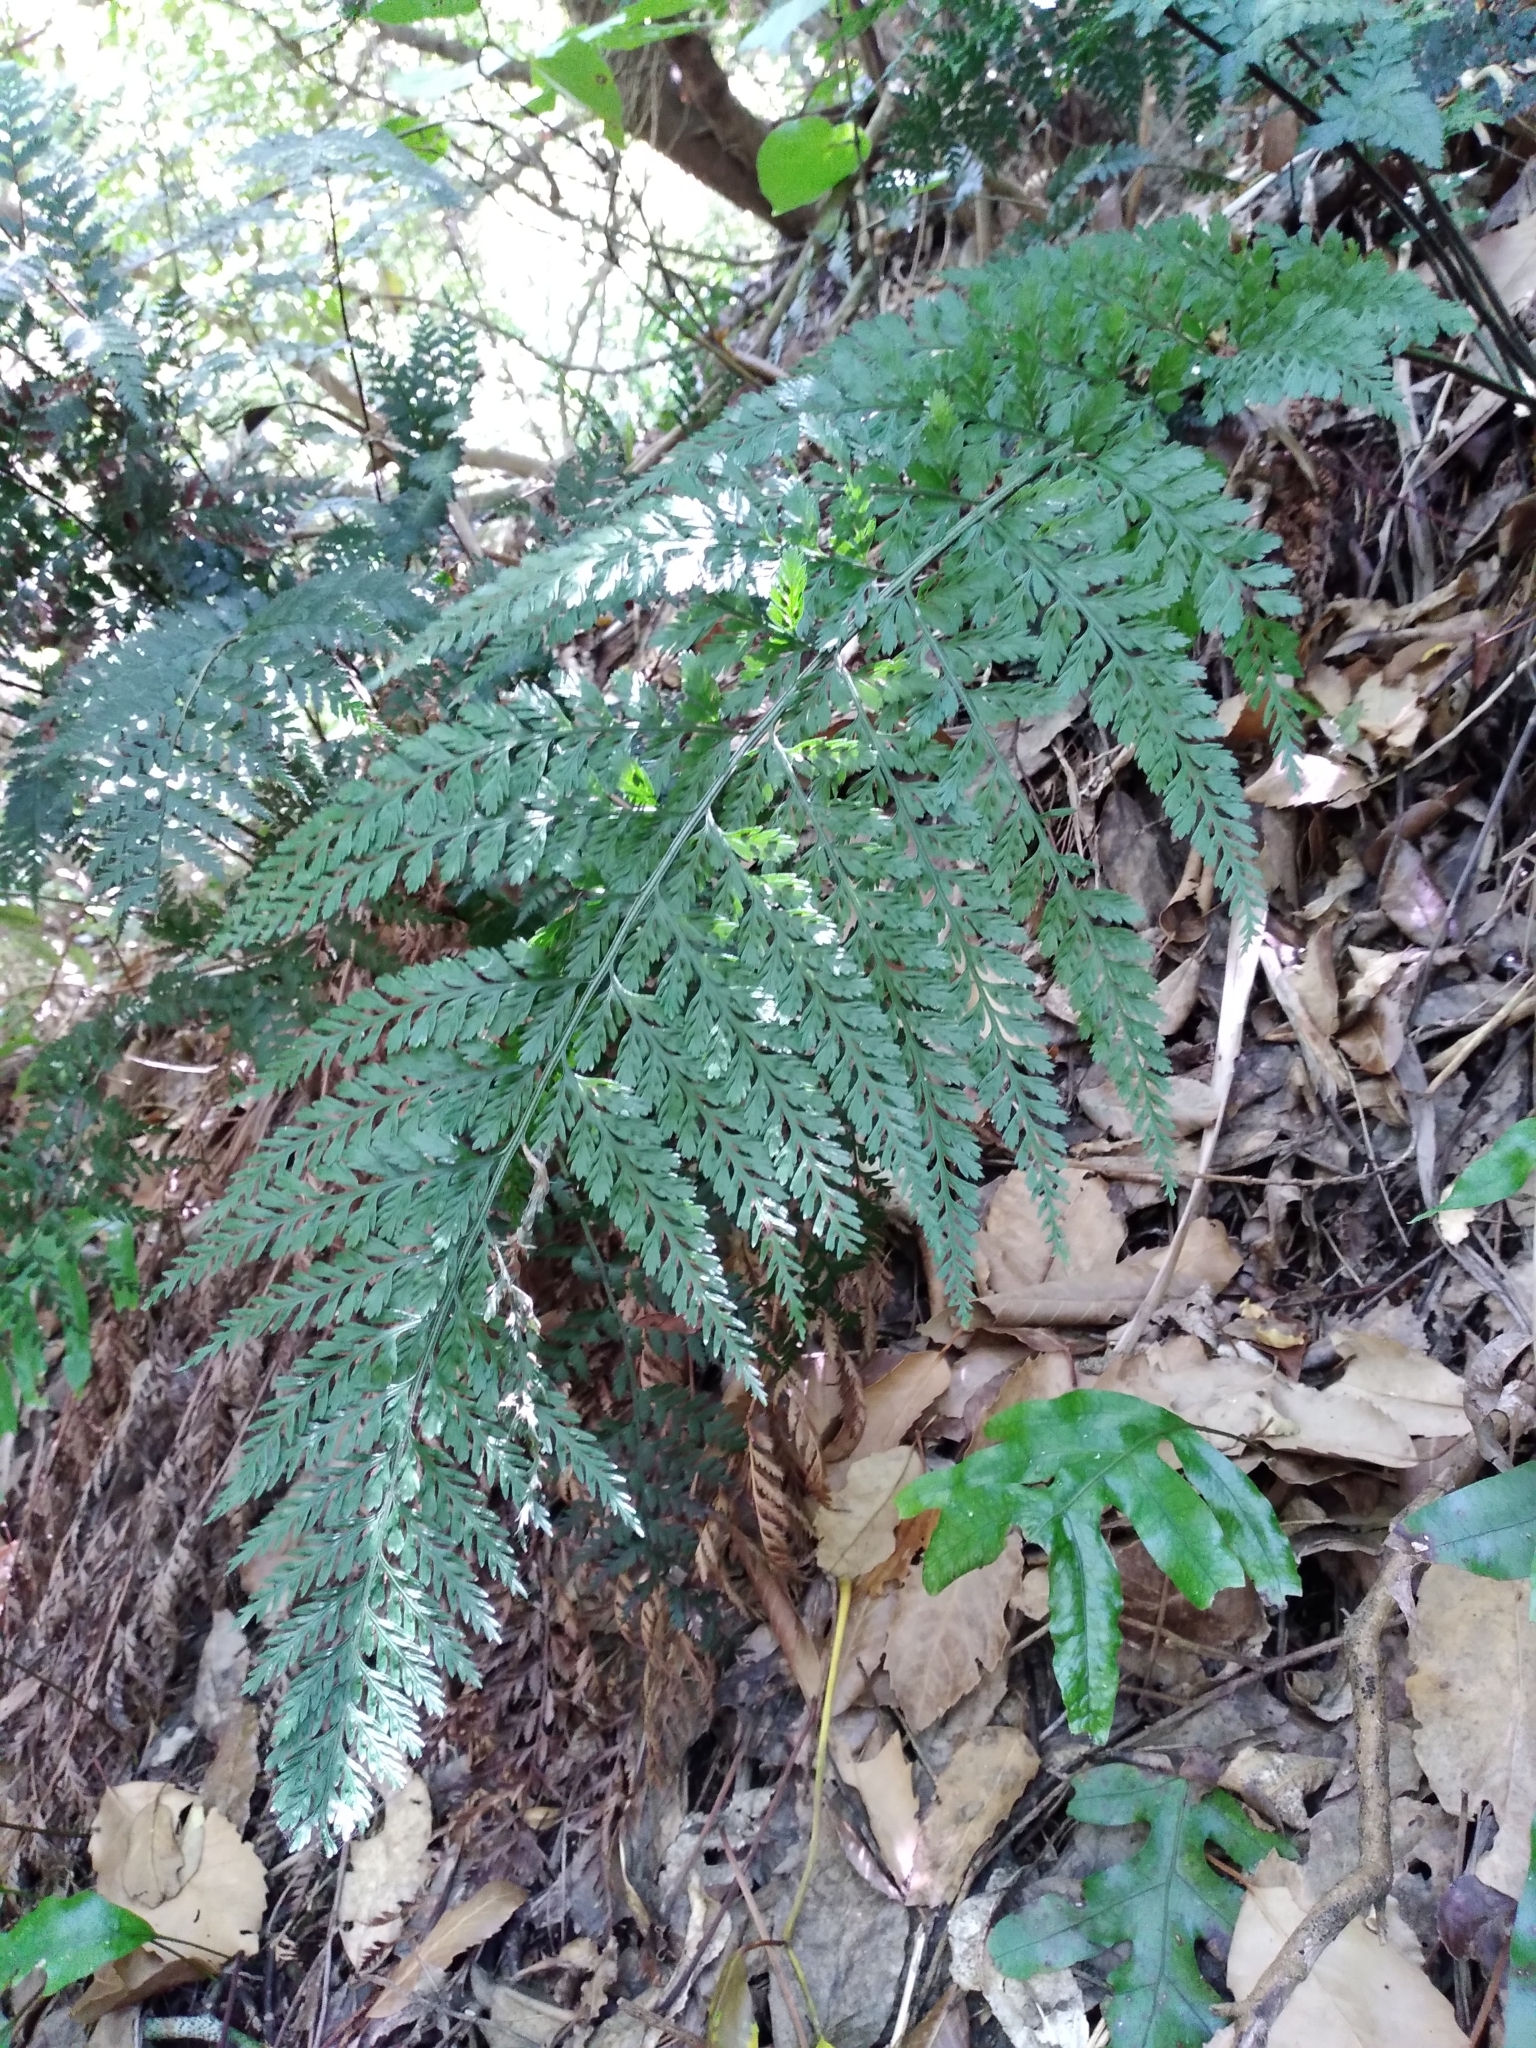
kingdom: Plantae
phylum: Tracheophyta
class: Polypodiopsida
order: Polypodiales
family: Aspleniaceae
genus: Asplenium
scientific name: Asplenium
